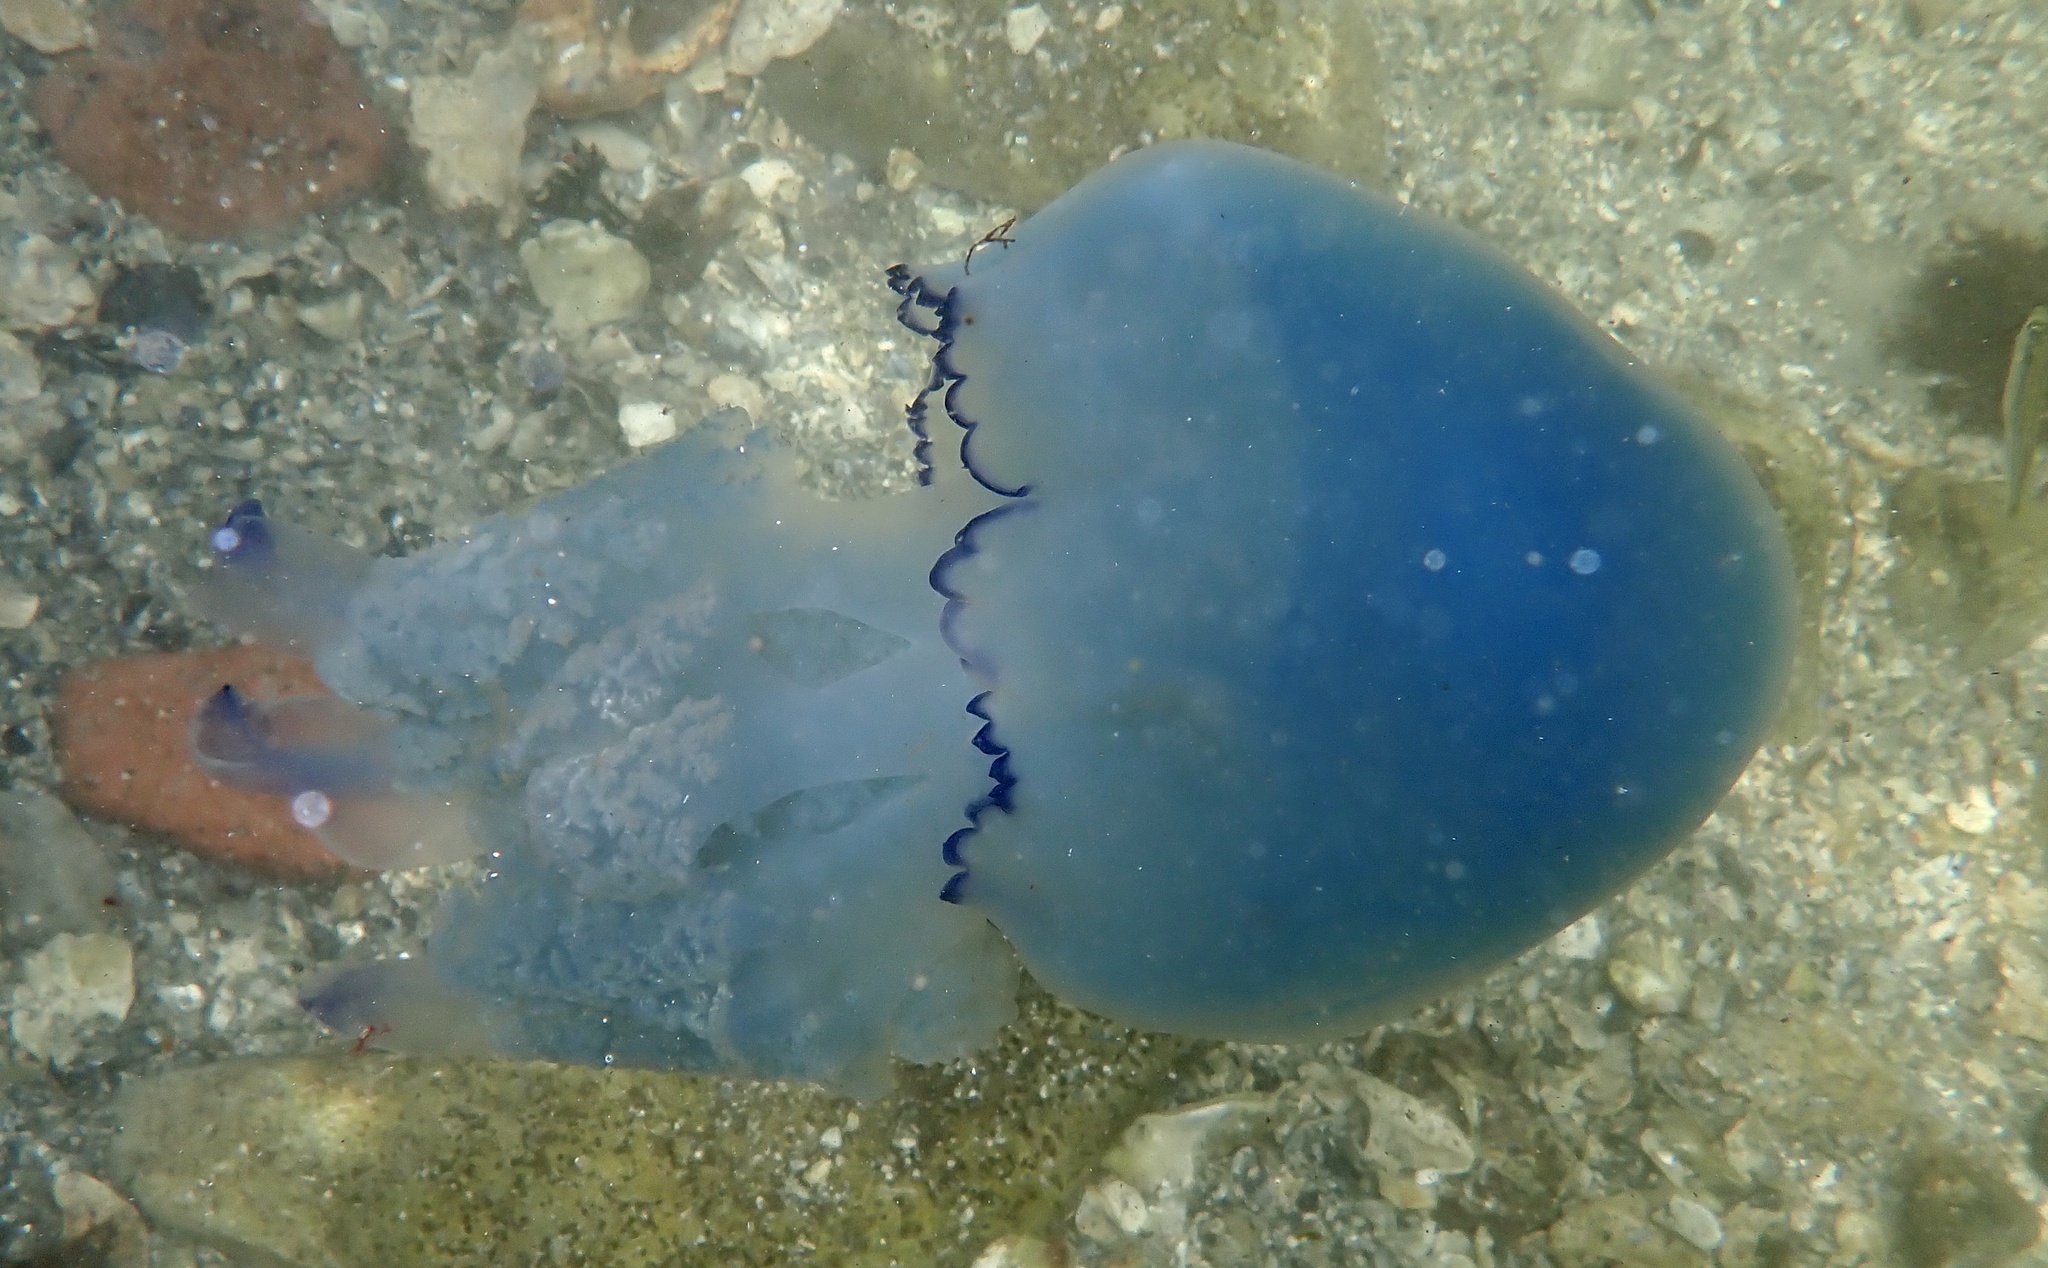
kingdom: Animalia
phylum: Cnidaria
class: Scyphozoa
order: Rhizostomeae
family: Rhizostomatidae
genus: Rhizostoma
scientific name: Rhizostoma octopus
